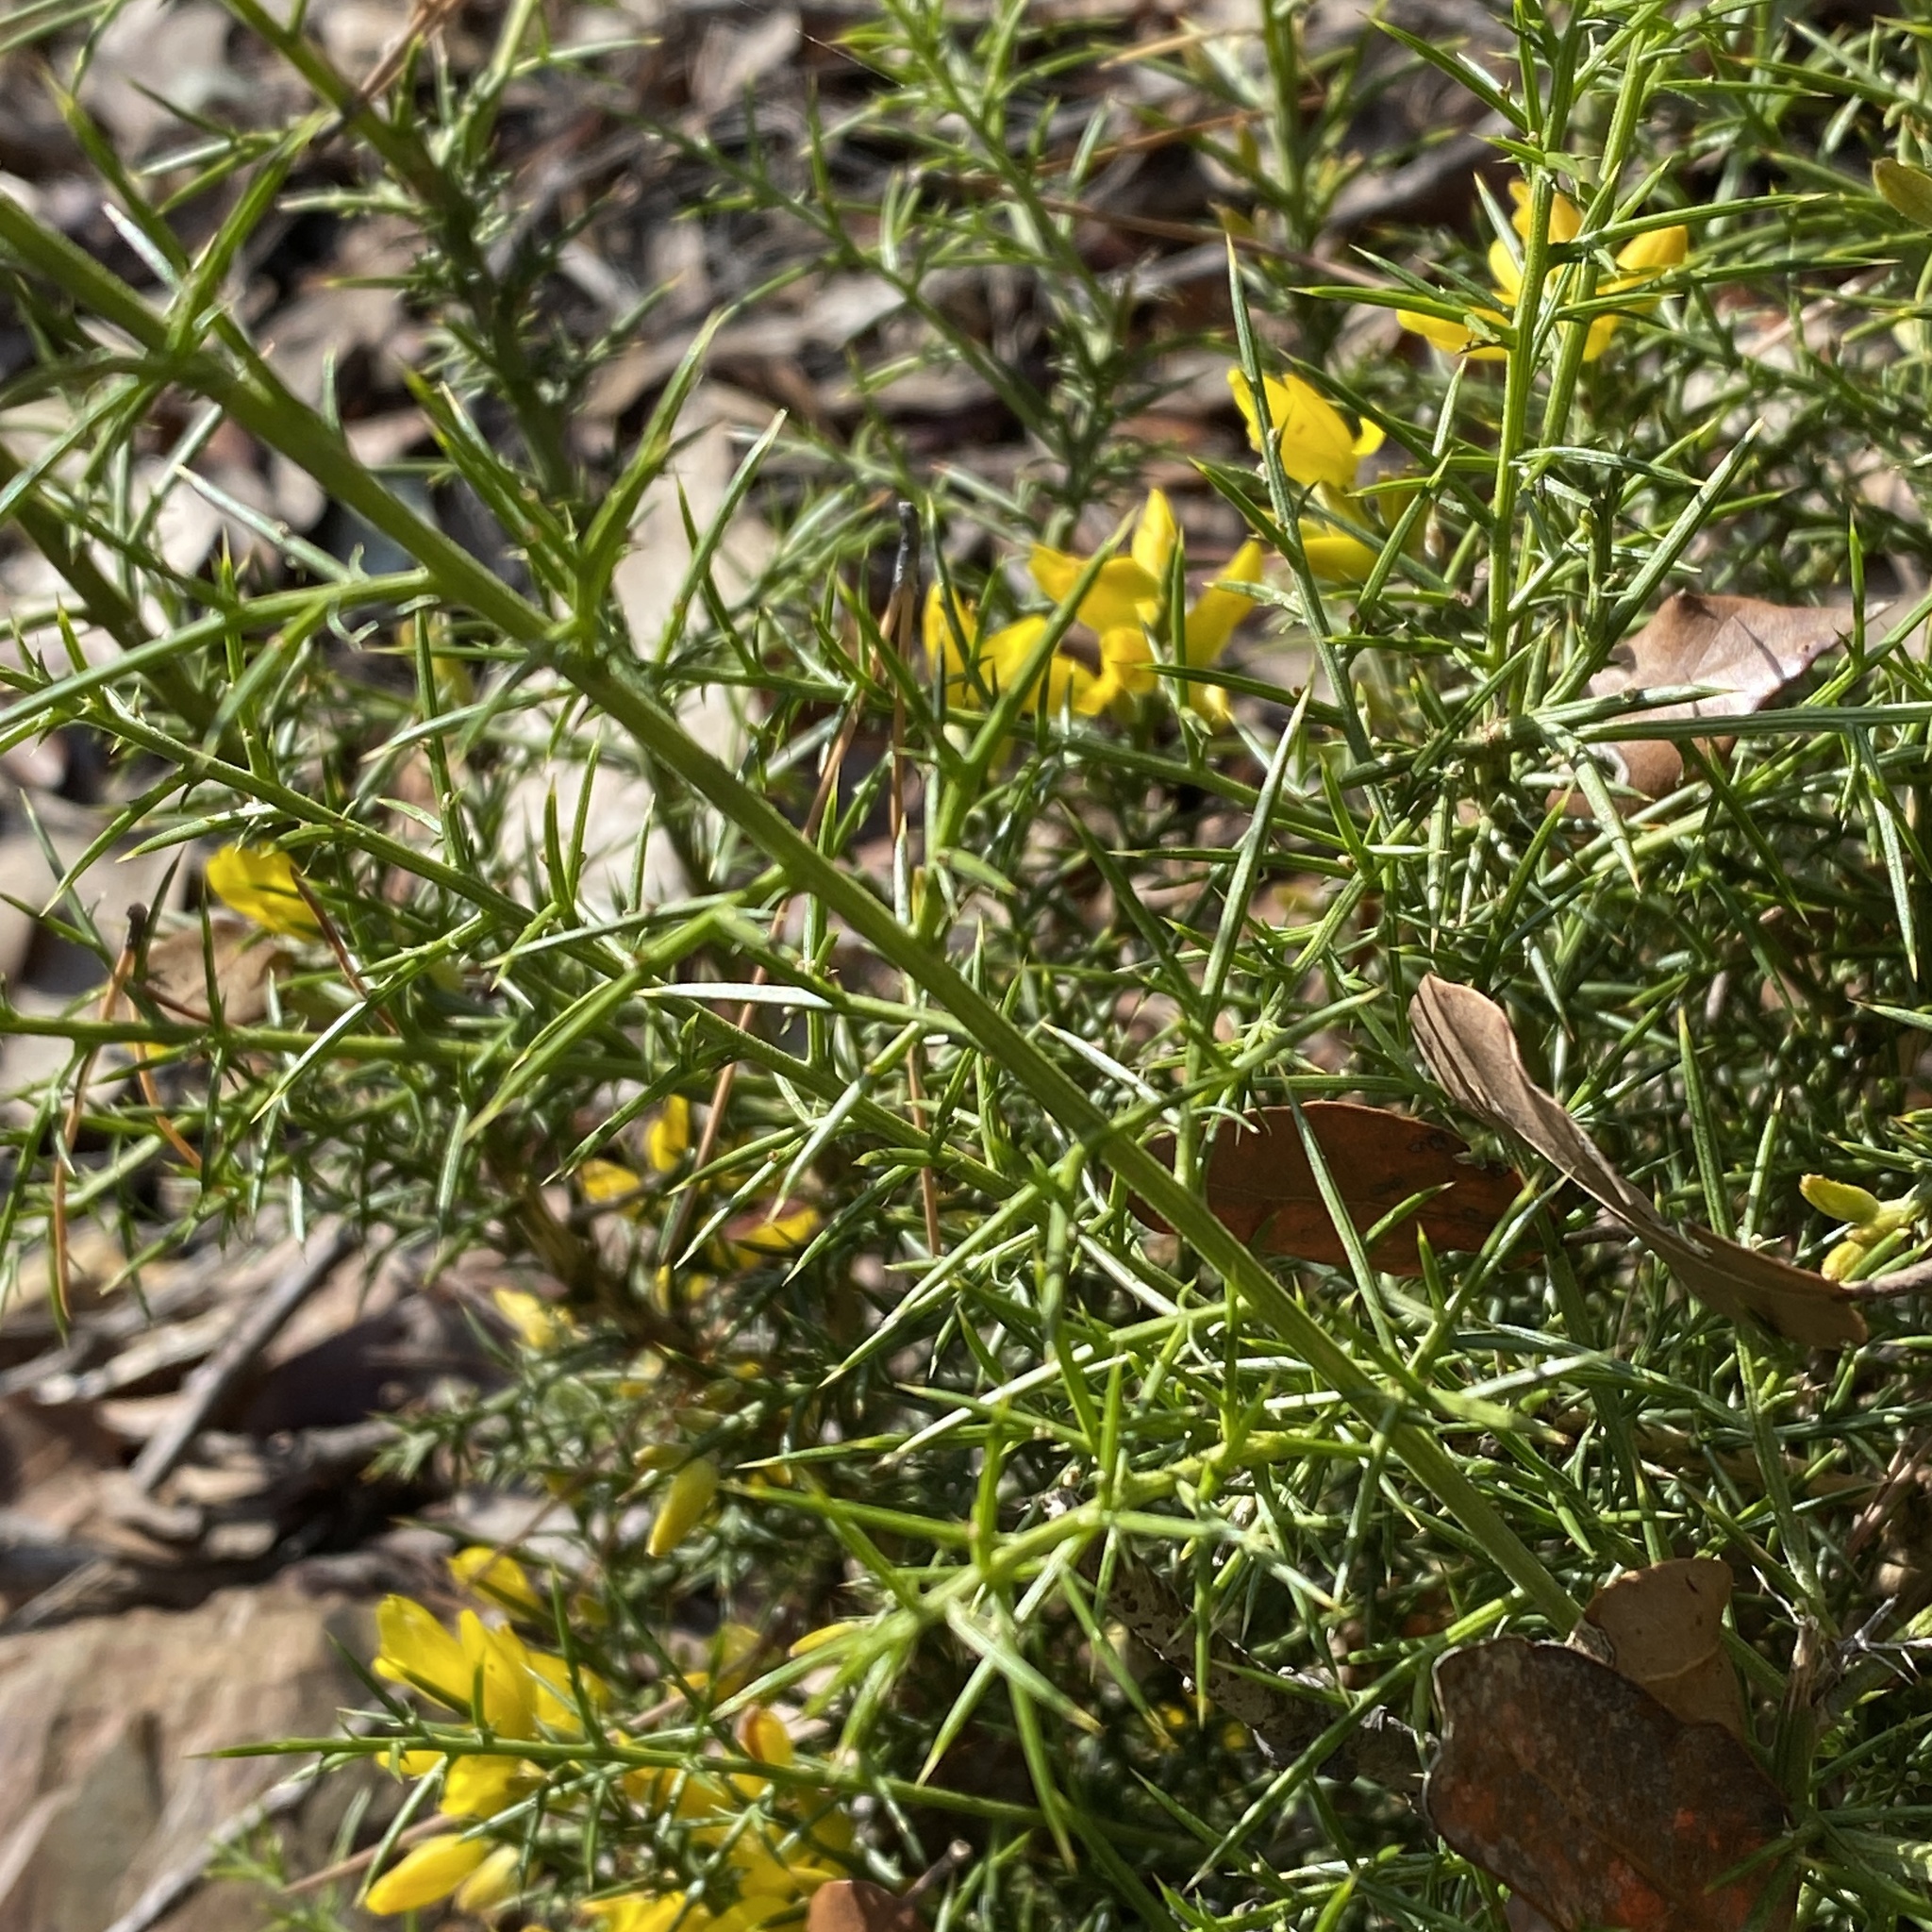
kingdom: Plantae
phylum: Tracheophyta
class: Magnoliopsida
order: Fabales
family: Fabaceae
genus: Ulex
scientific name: Ulex parviflorus
